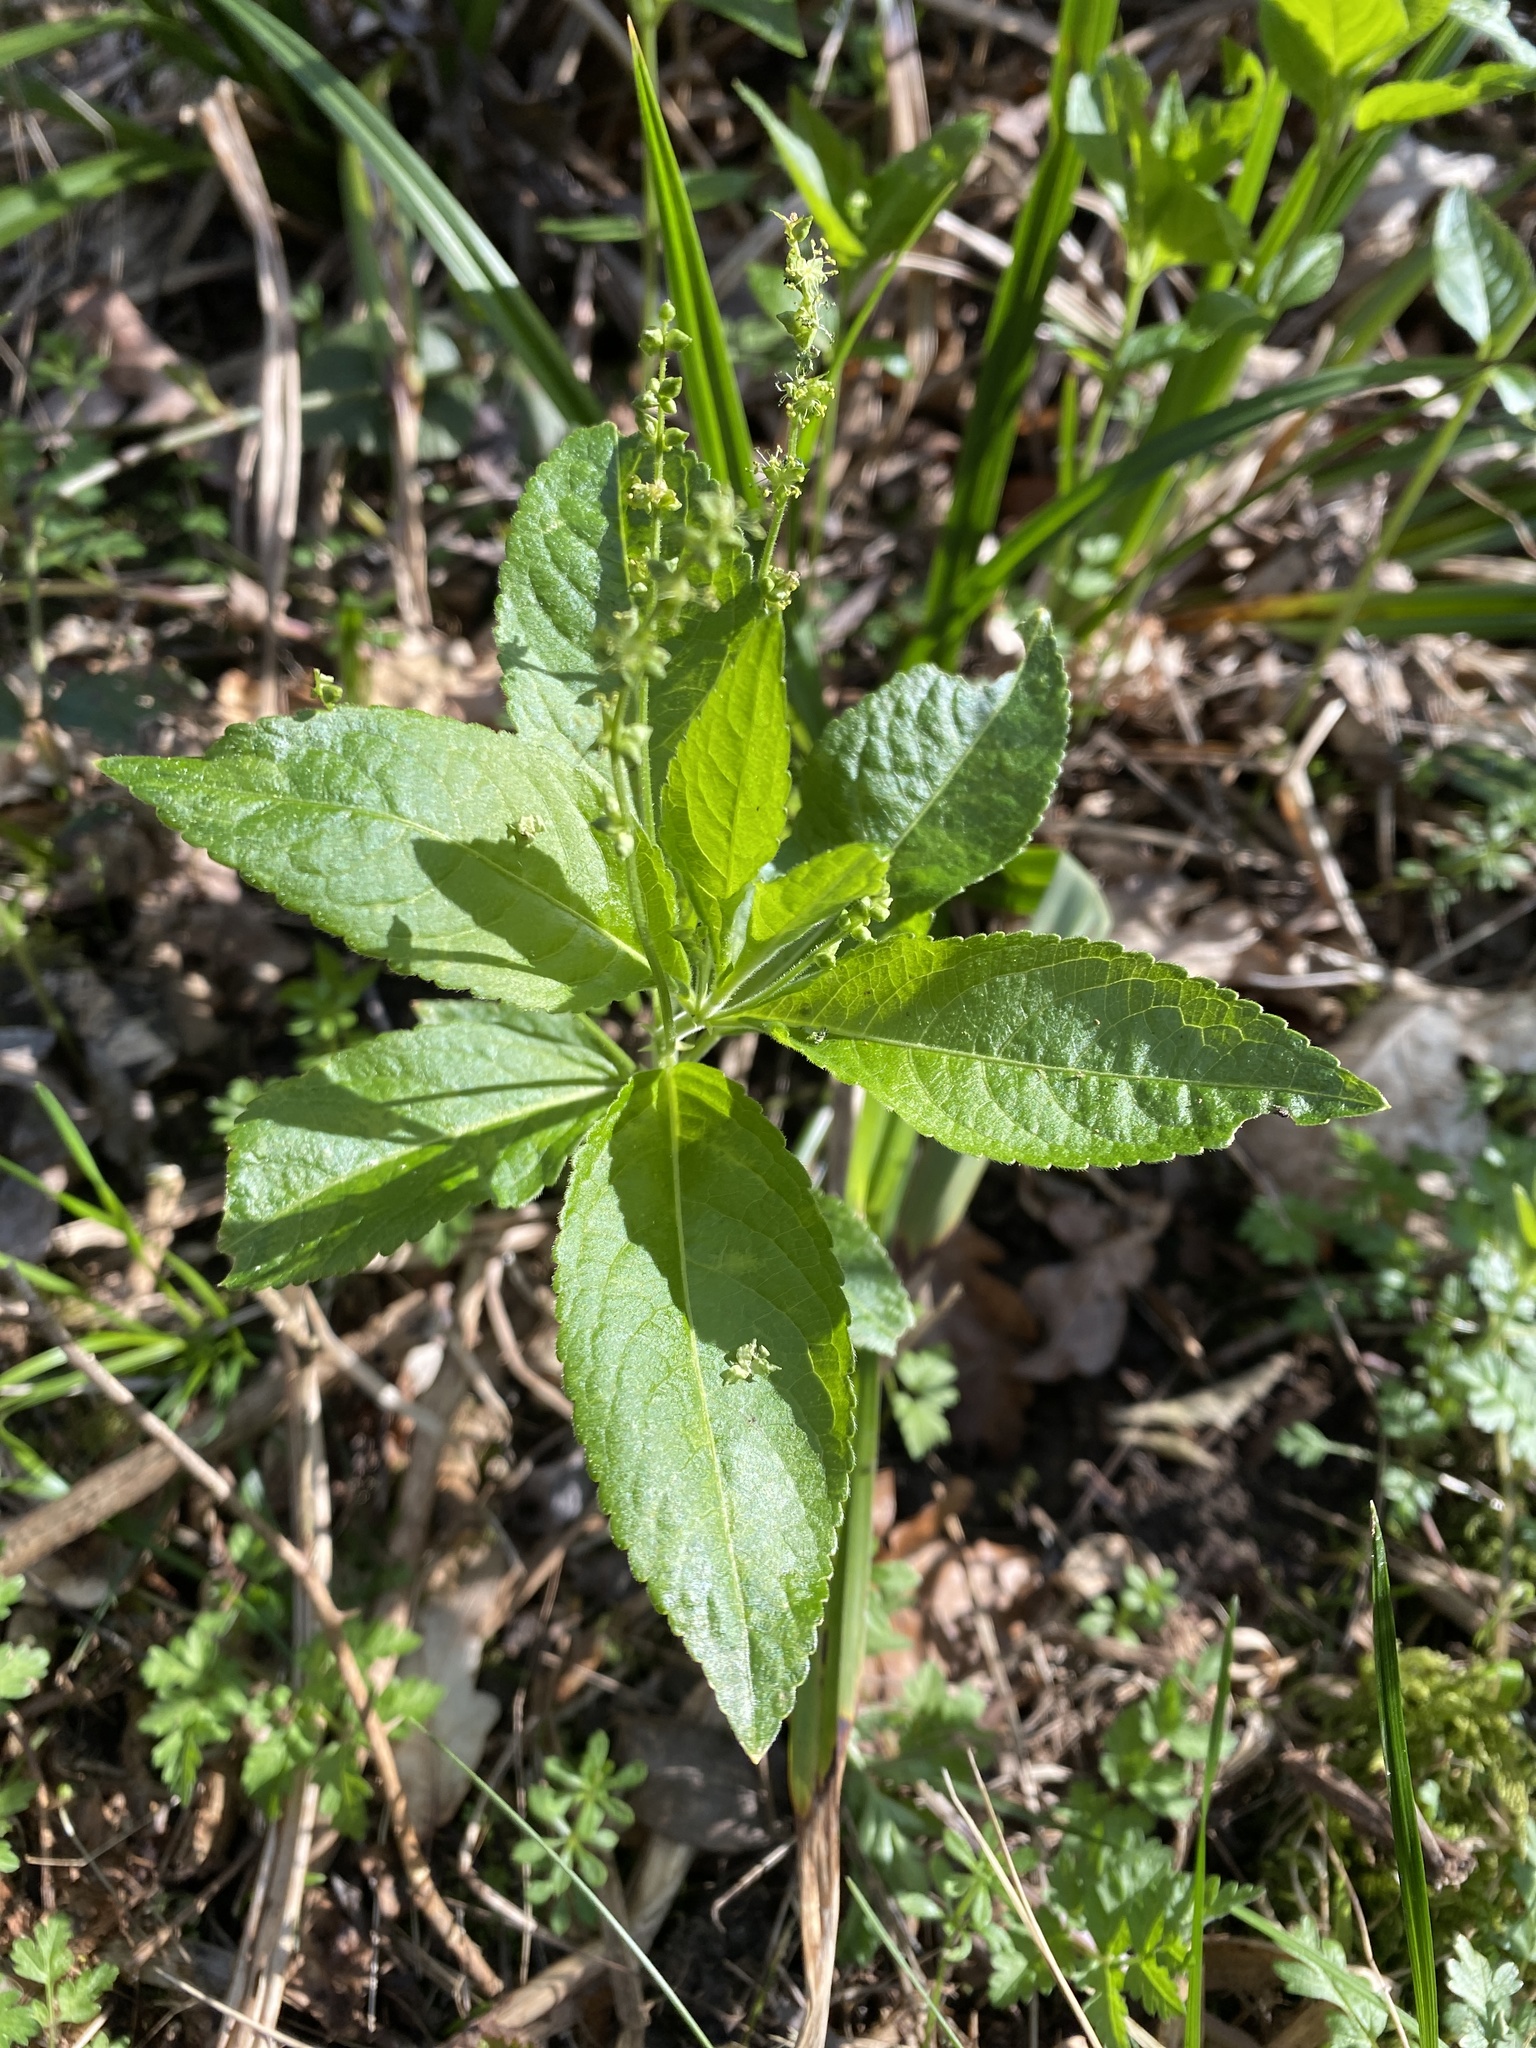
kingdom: Plantae
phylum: Tracheophyta
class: Magnoliopsida
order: Malpighiales
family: Euphorbiaceae
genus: Mercurialis
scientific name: Mercurialis perennis
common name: Dog mercury
